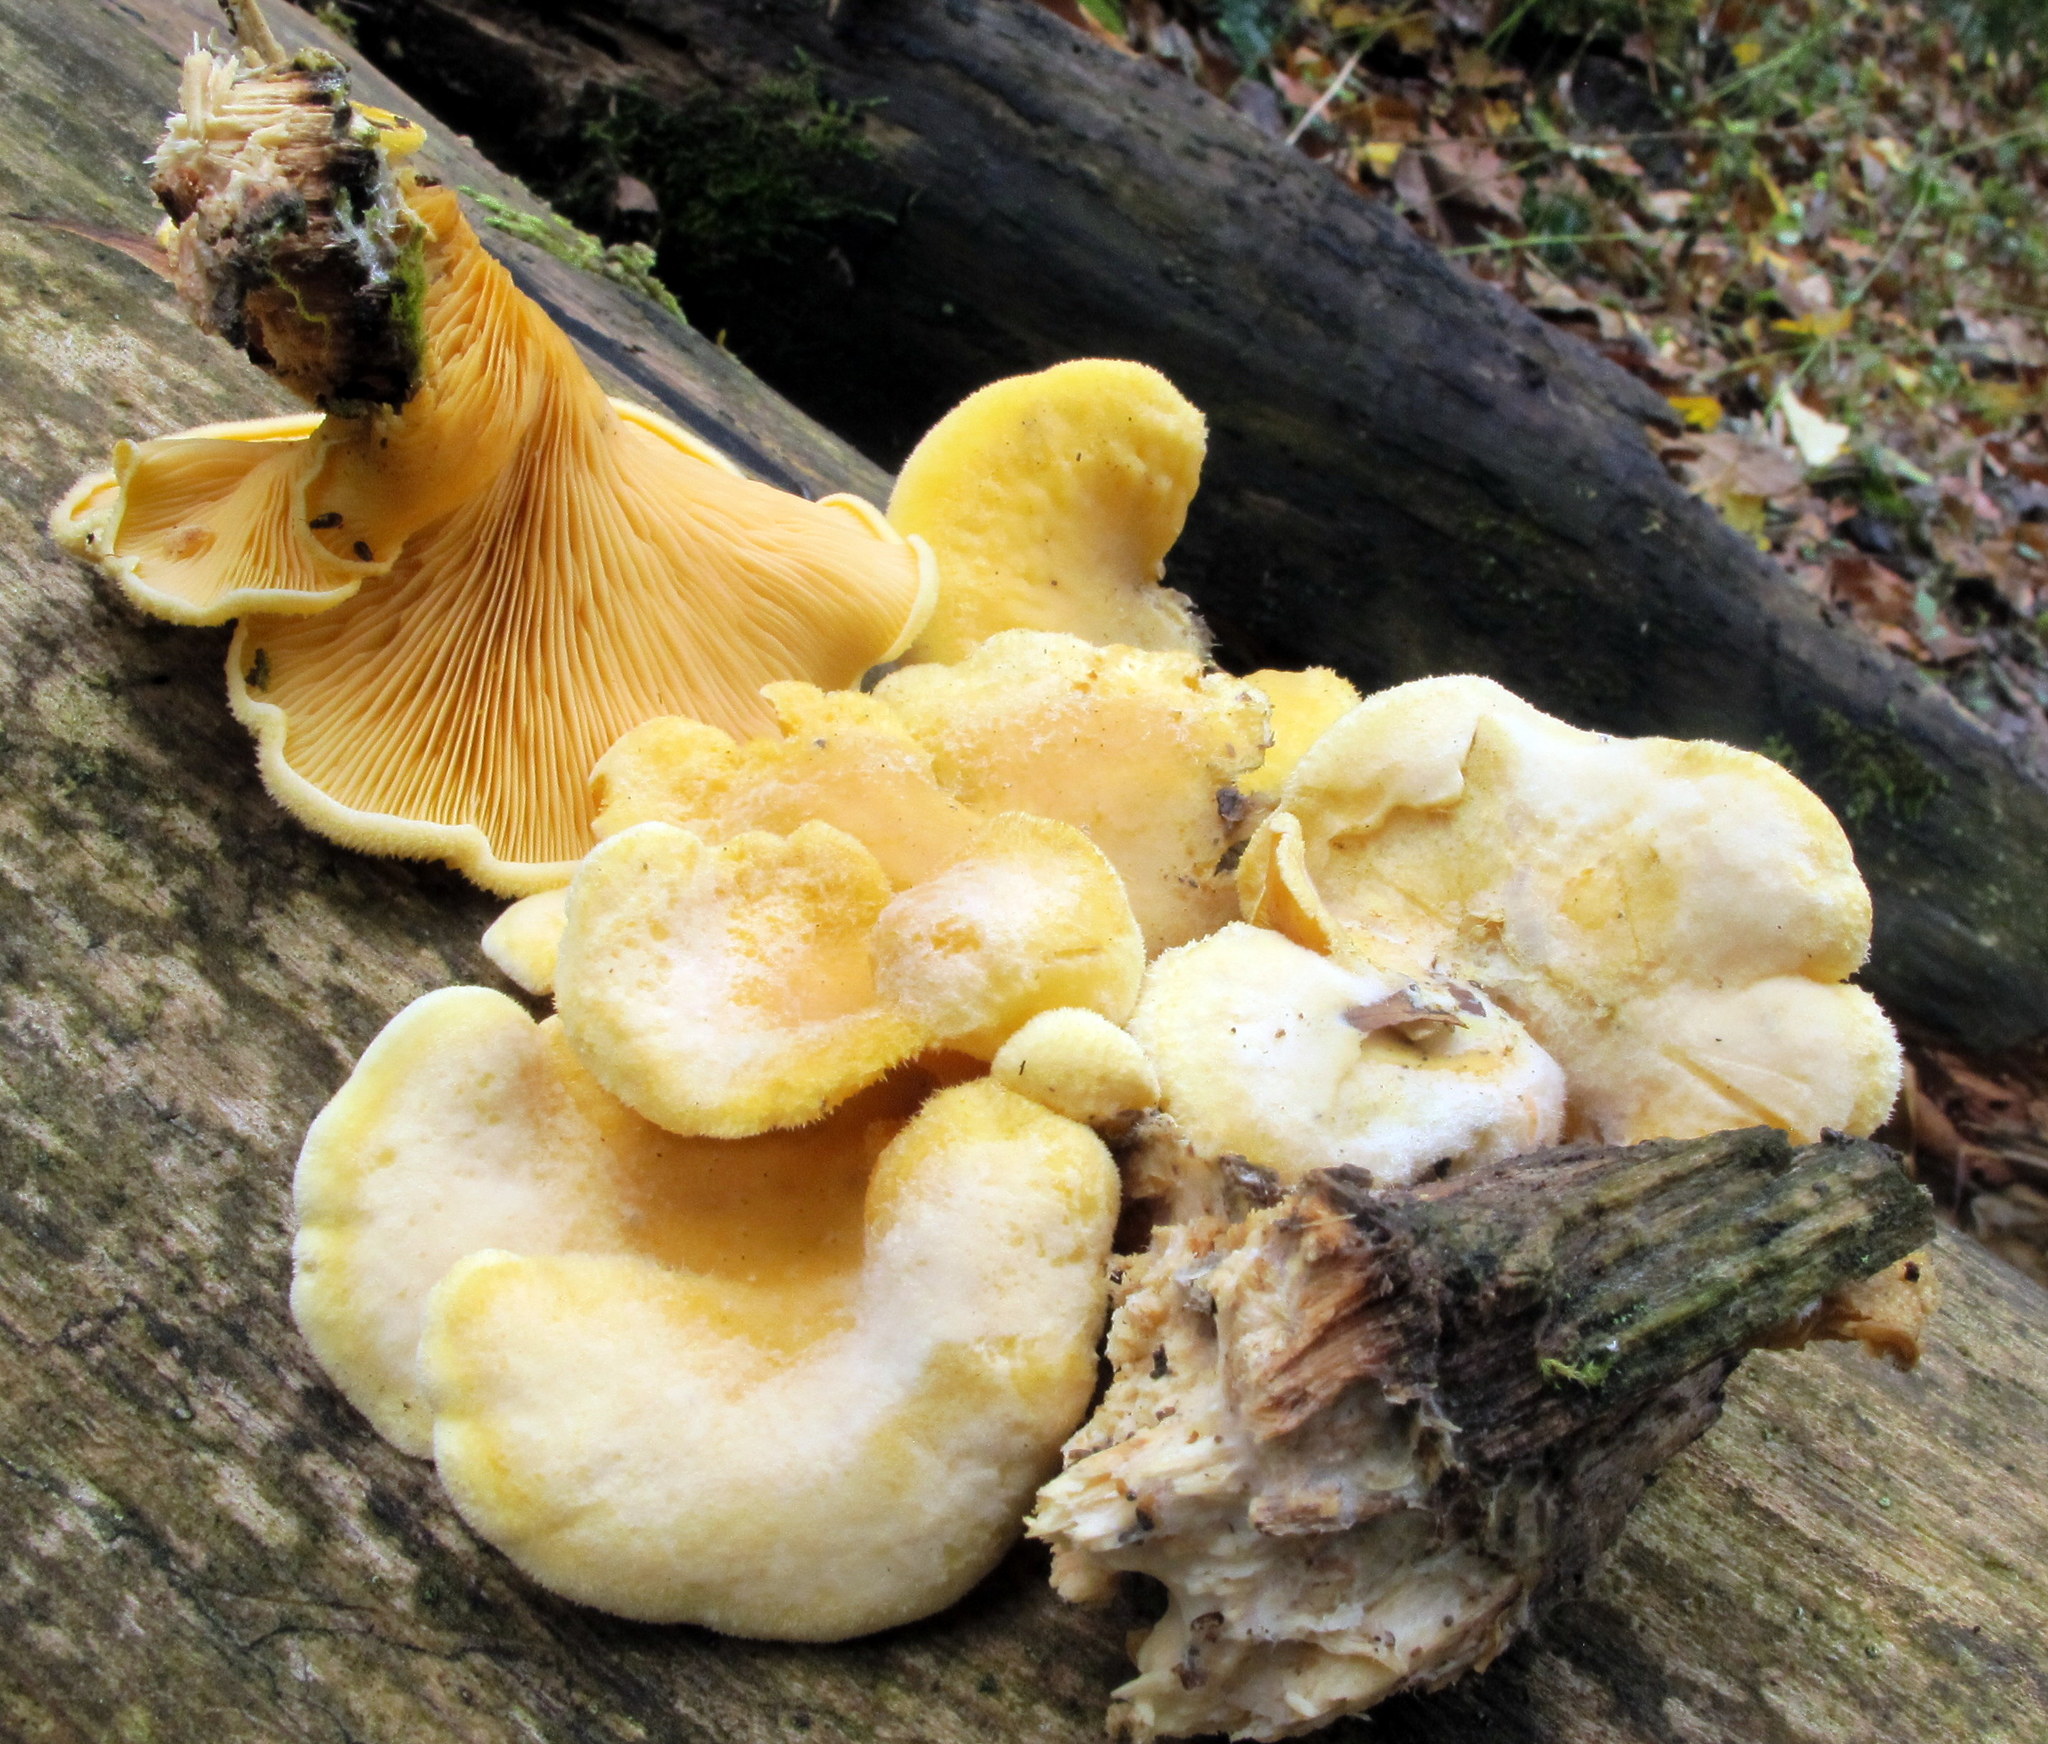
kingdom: Fungi
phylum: Basidiomycota
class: Agaricomycetes
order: Agaricales
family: Phyllotopsidaceae
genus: Phyllotopsis
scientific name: Phyllotopsis nidulans
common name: Orange mock oyster
